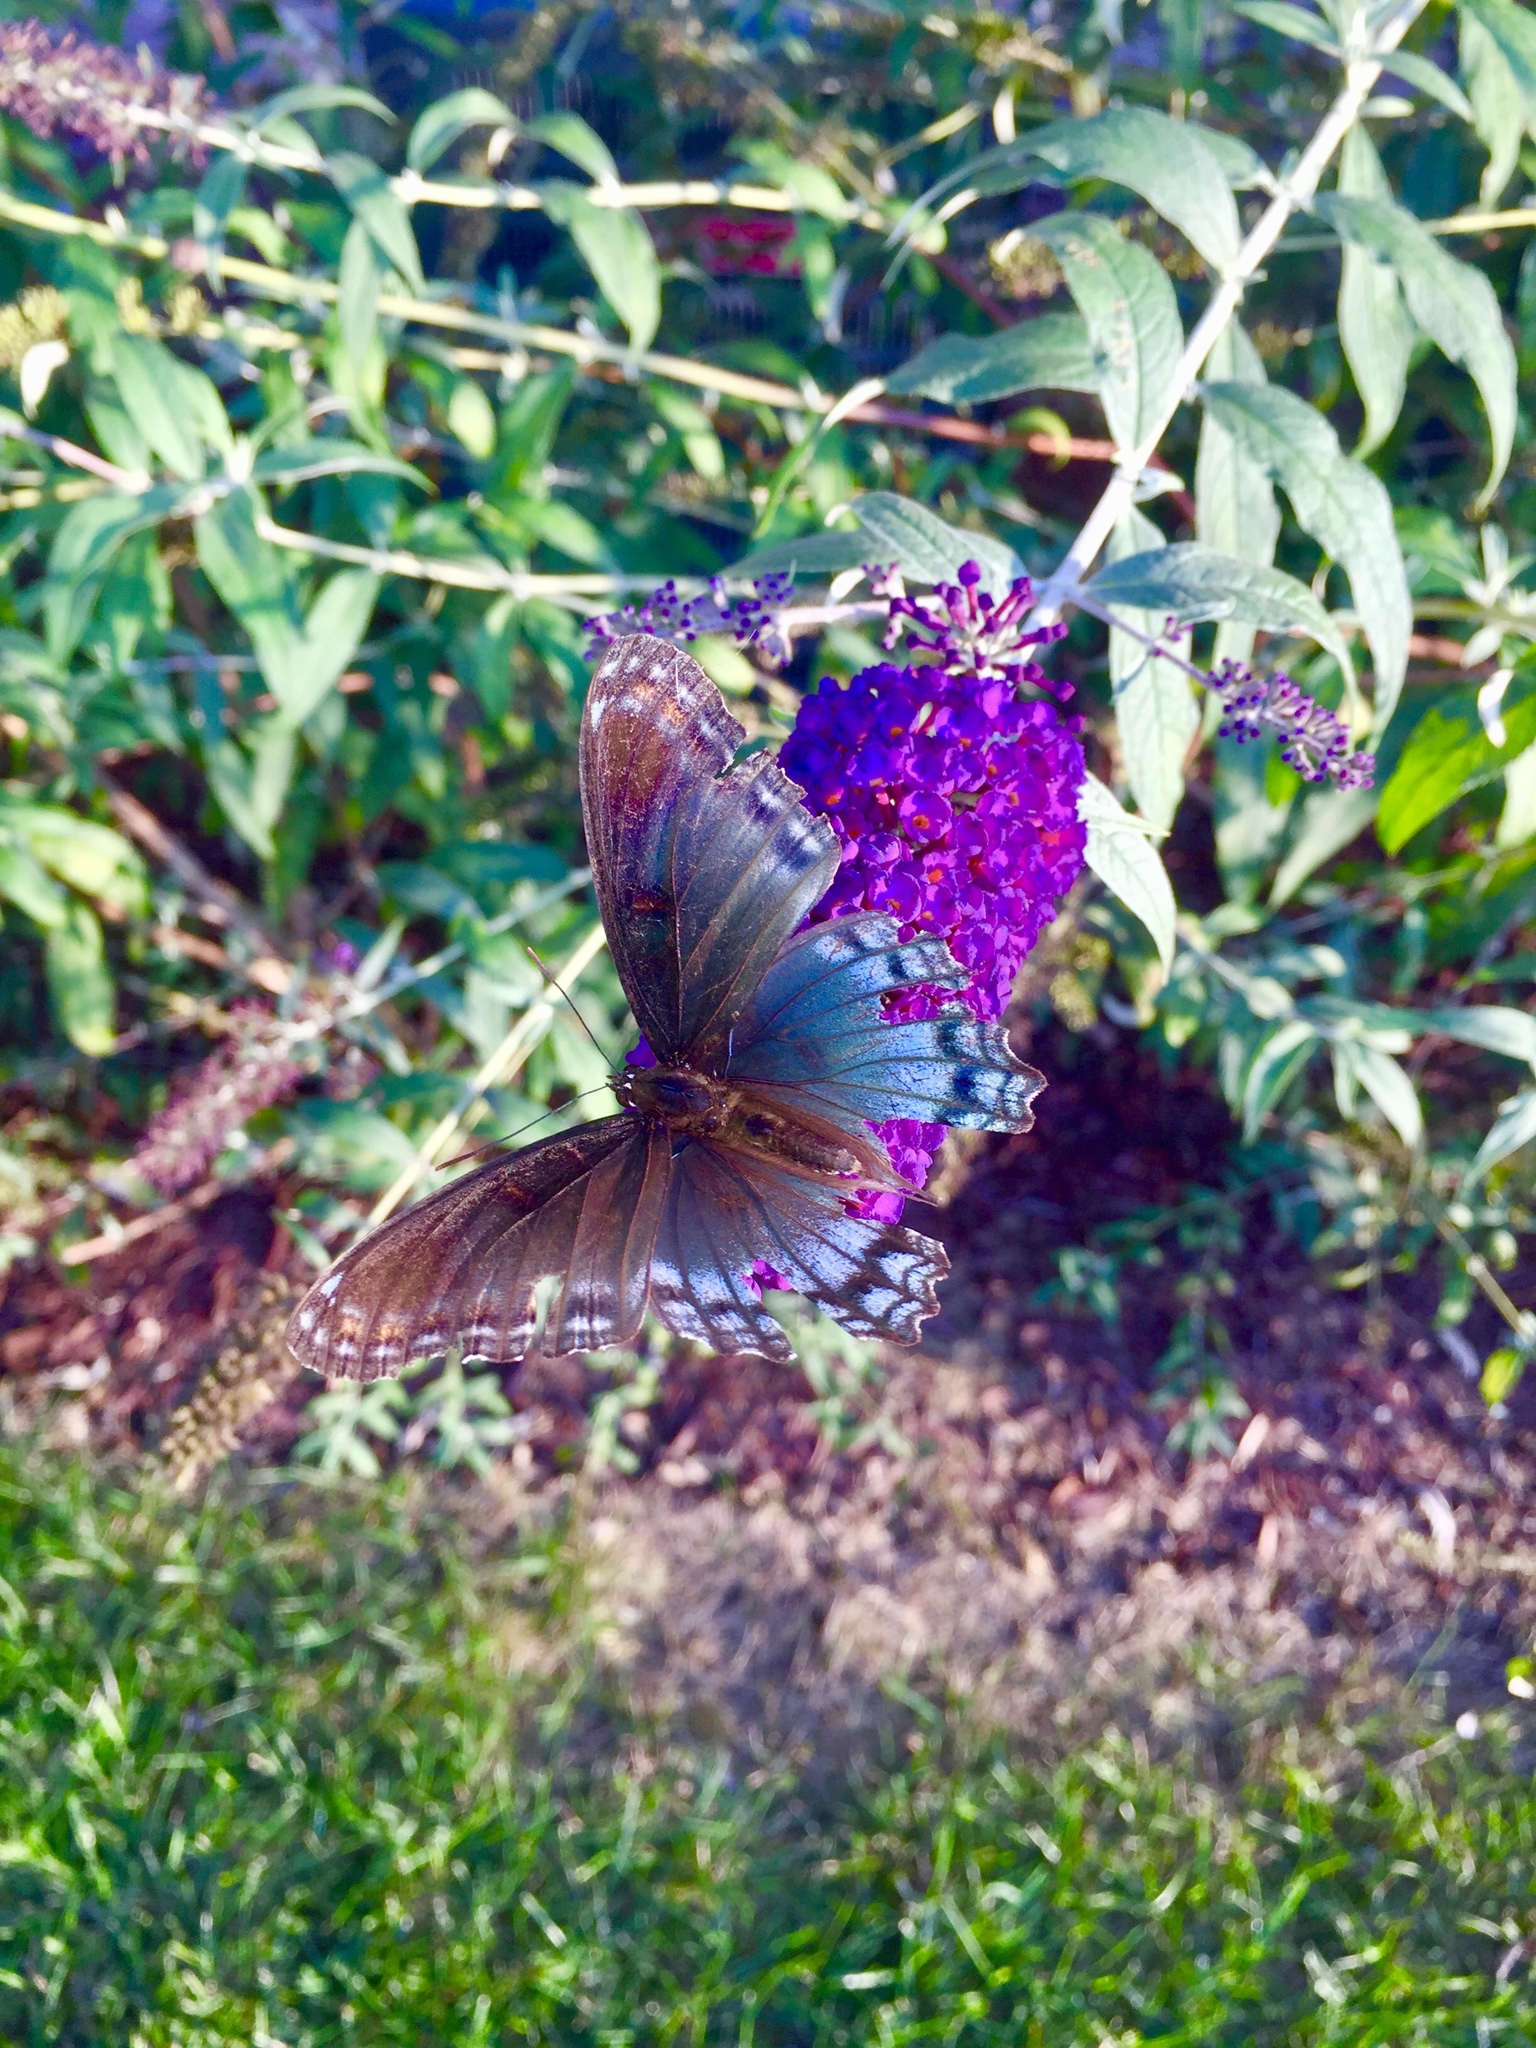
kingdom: Animalia
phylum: Arthropoda
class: Insecta
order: Lepidoptera
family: Nymphalidae
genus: Limenitis
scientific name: Limenitis astyanax
